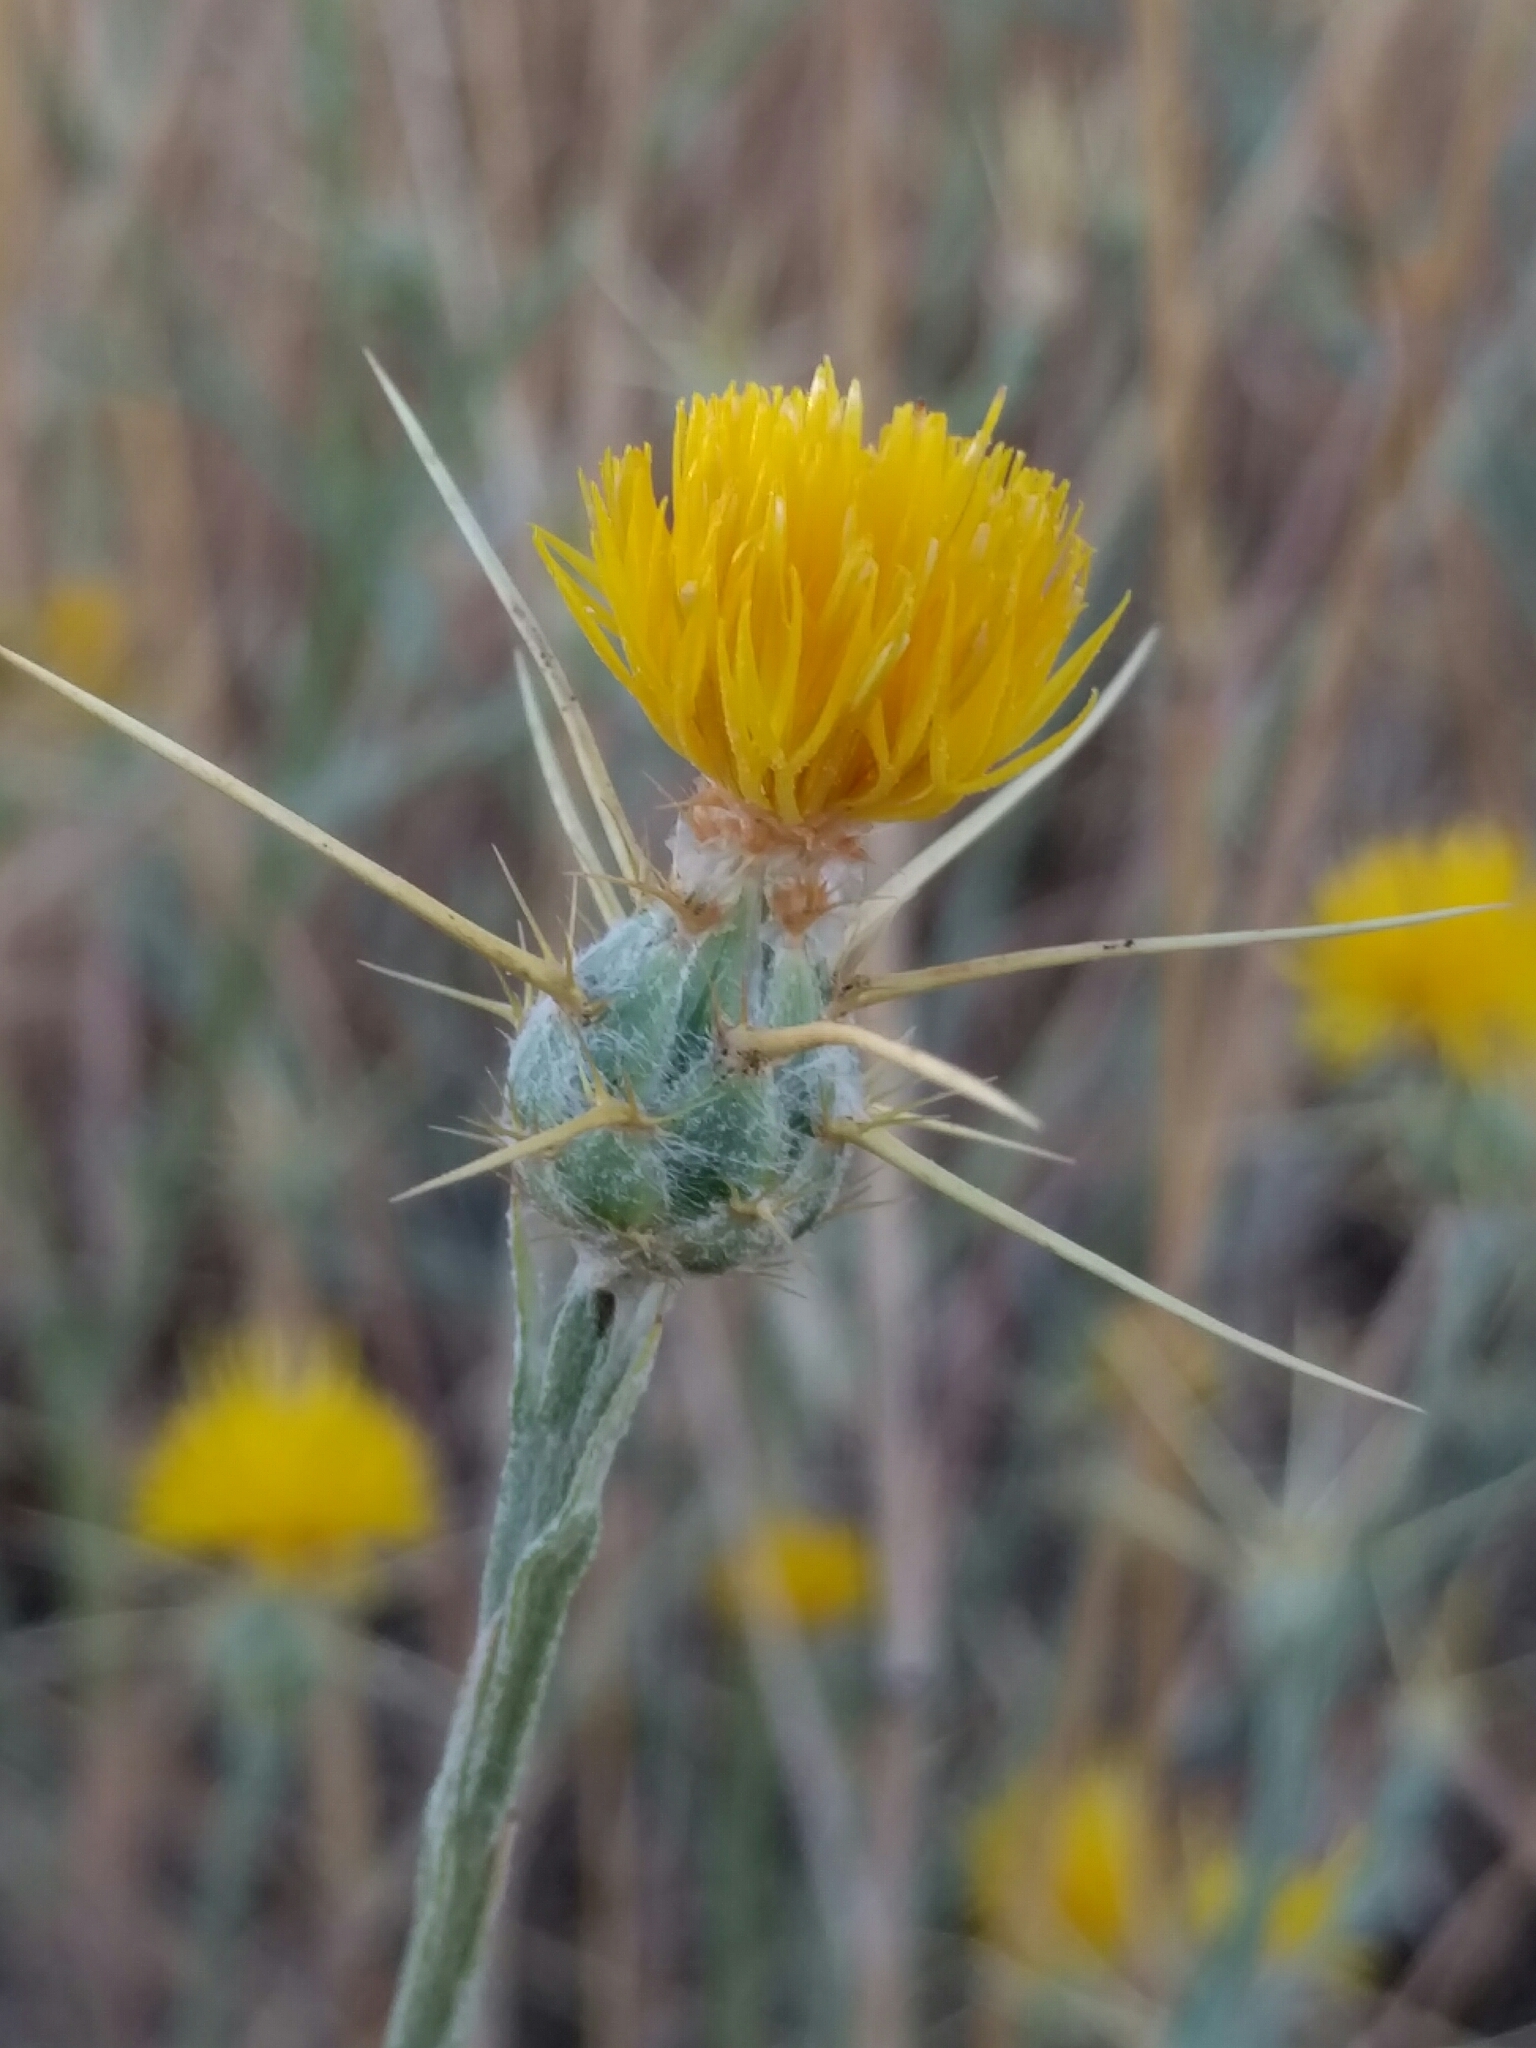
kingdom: Plantae
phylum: Tracheophyta
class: Magnoliopsida
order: Asterales
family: Asteraceae
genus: Centaurea
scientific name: Centaurea solstitialis
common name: Yellow star-thistle
